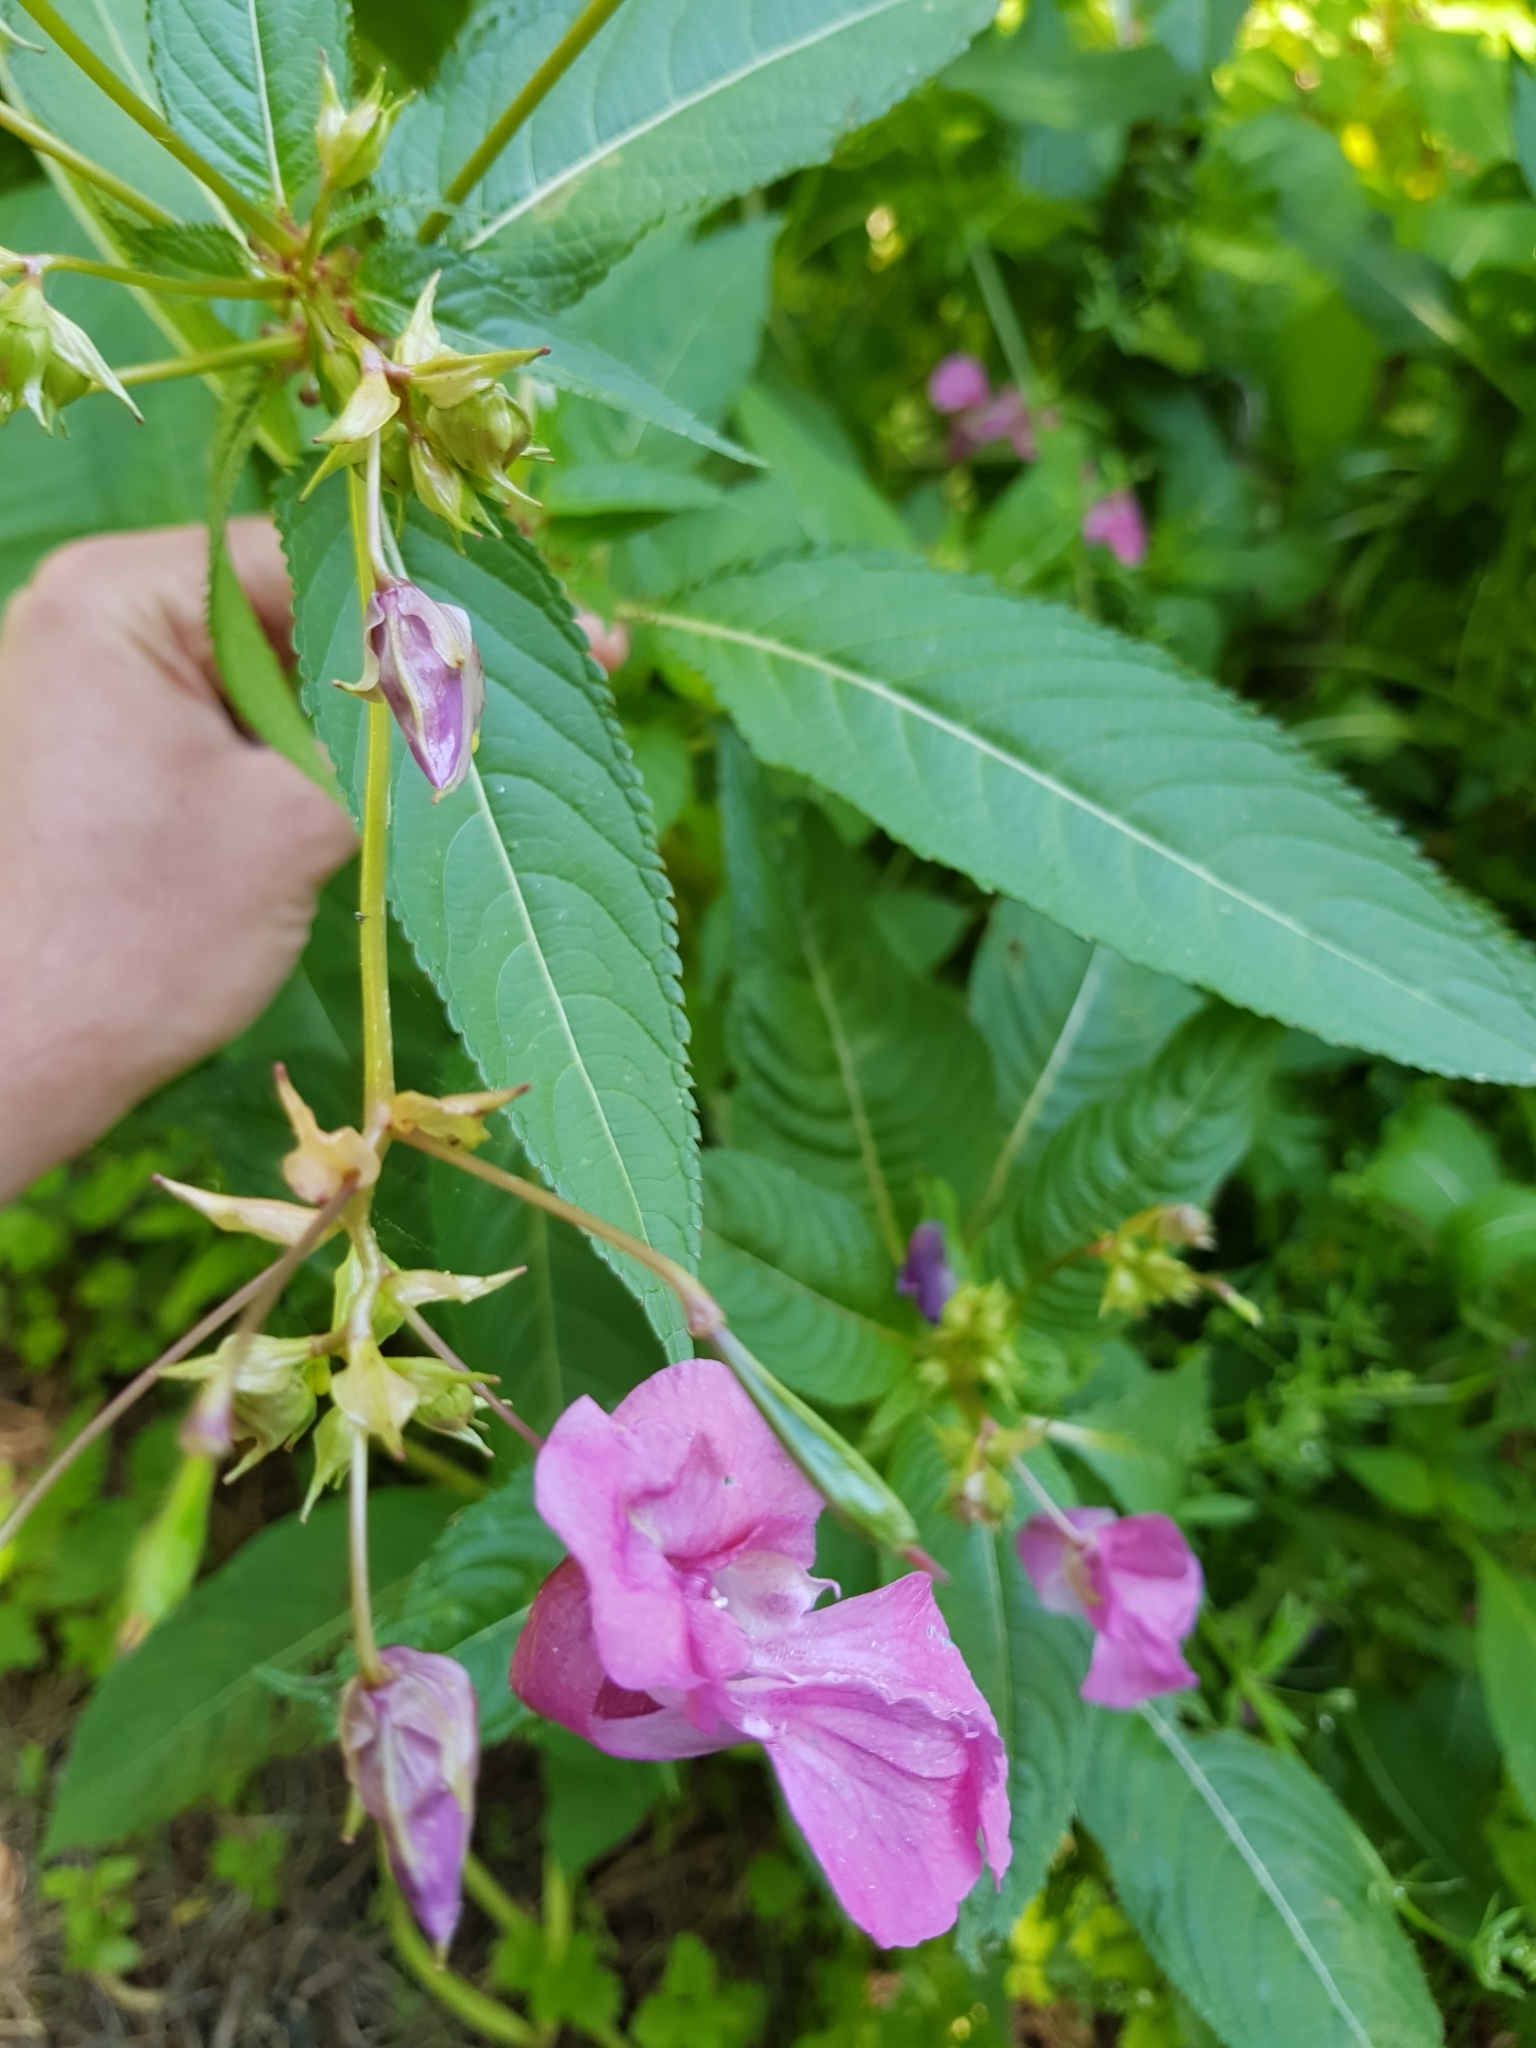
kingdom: Plantae
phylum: Tracheophyta
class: Magnoliopsida
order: Ericales
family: Balsaminaceae
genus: Impatiens
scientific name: Impatiens glandulifera
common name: Himalayan balsam
